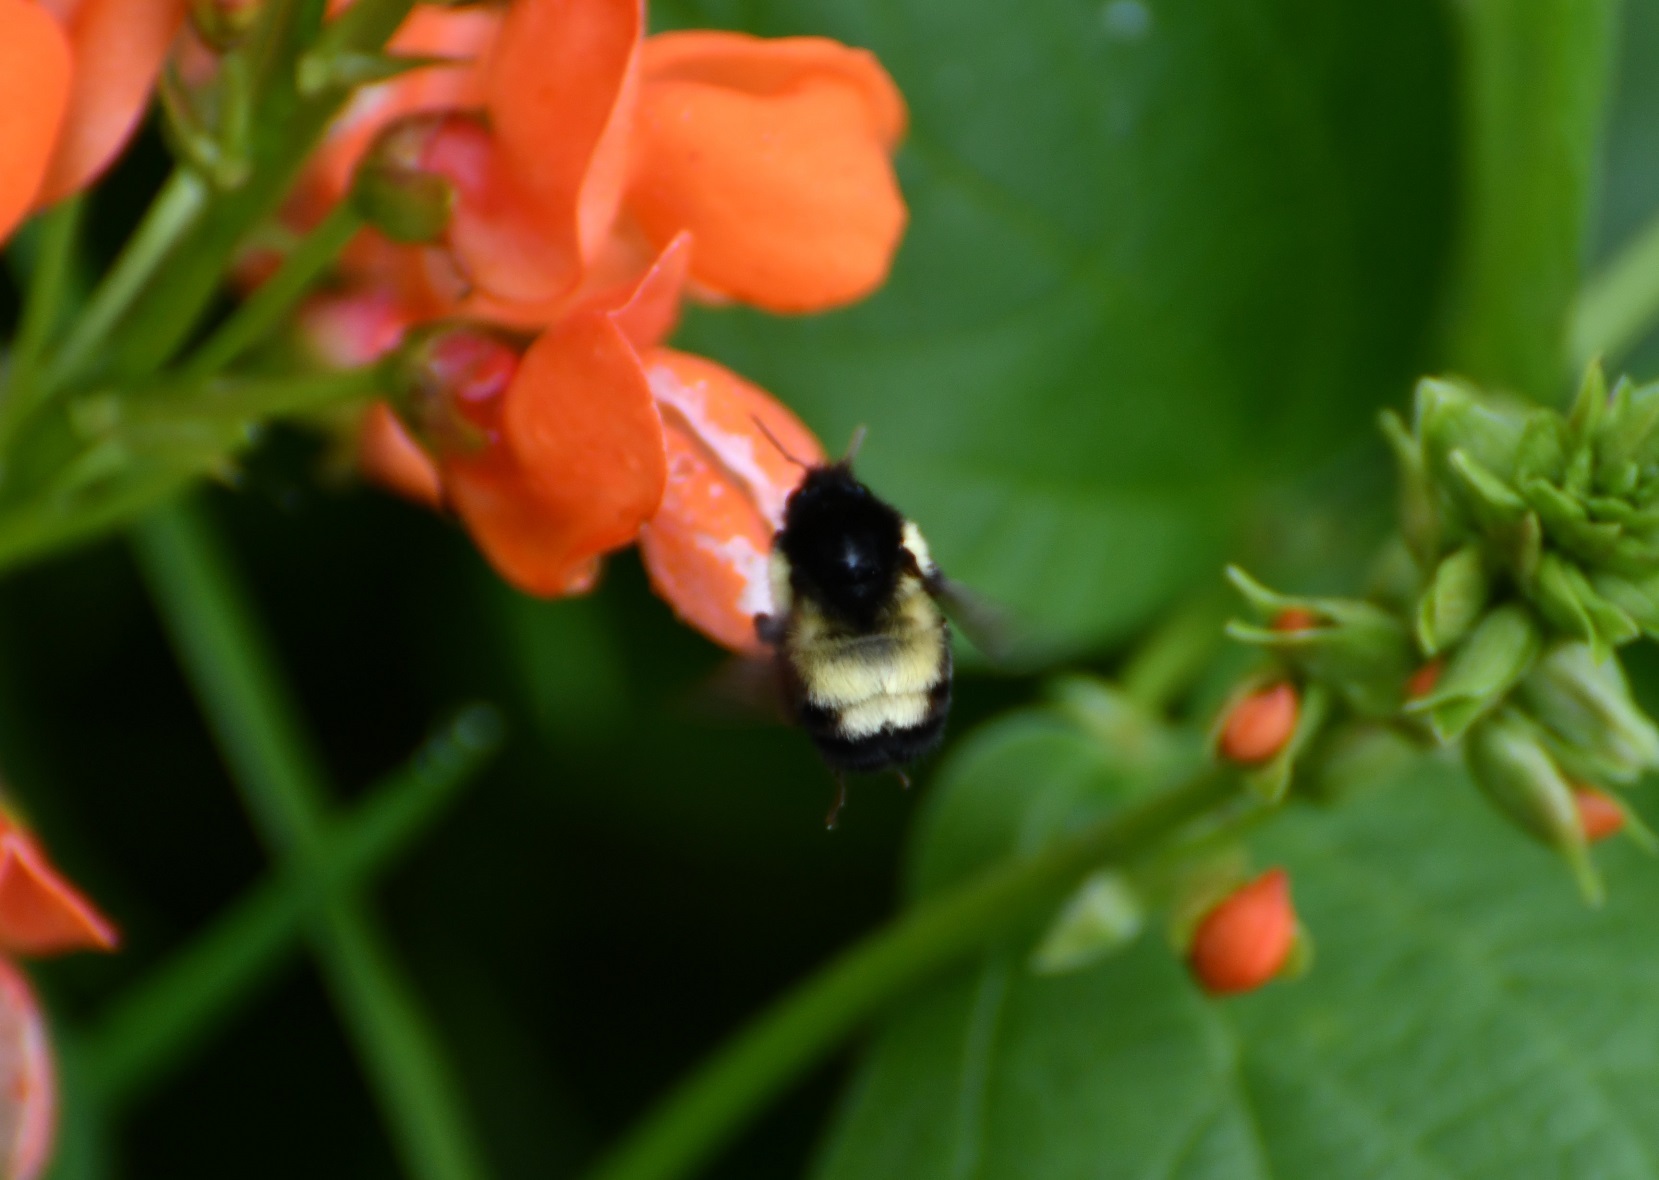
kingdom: Animalia
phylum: Arthropoda
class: Insecta
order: Hymenoptera
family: Apidae
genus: Bombus
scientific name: Bombus ephippiatus
